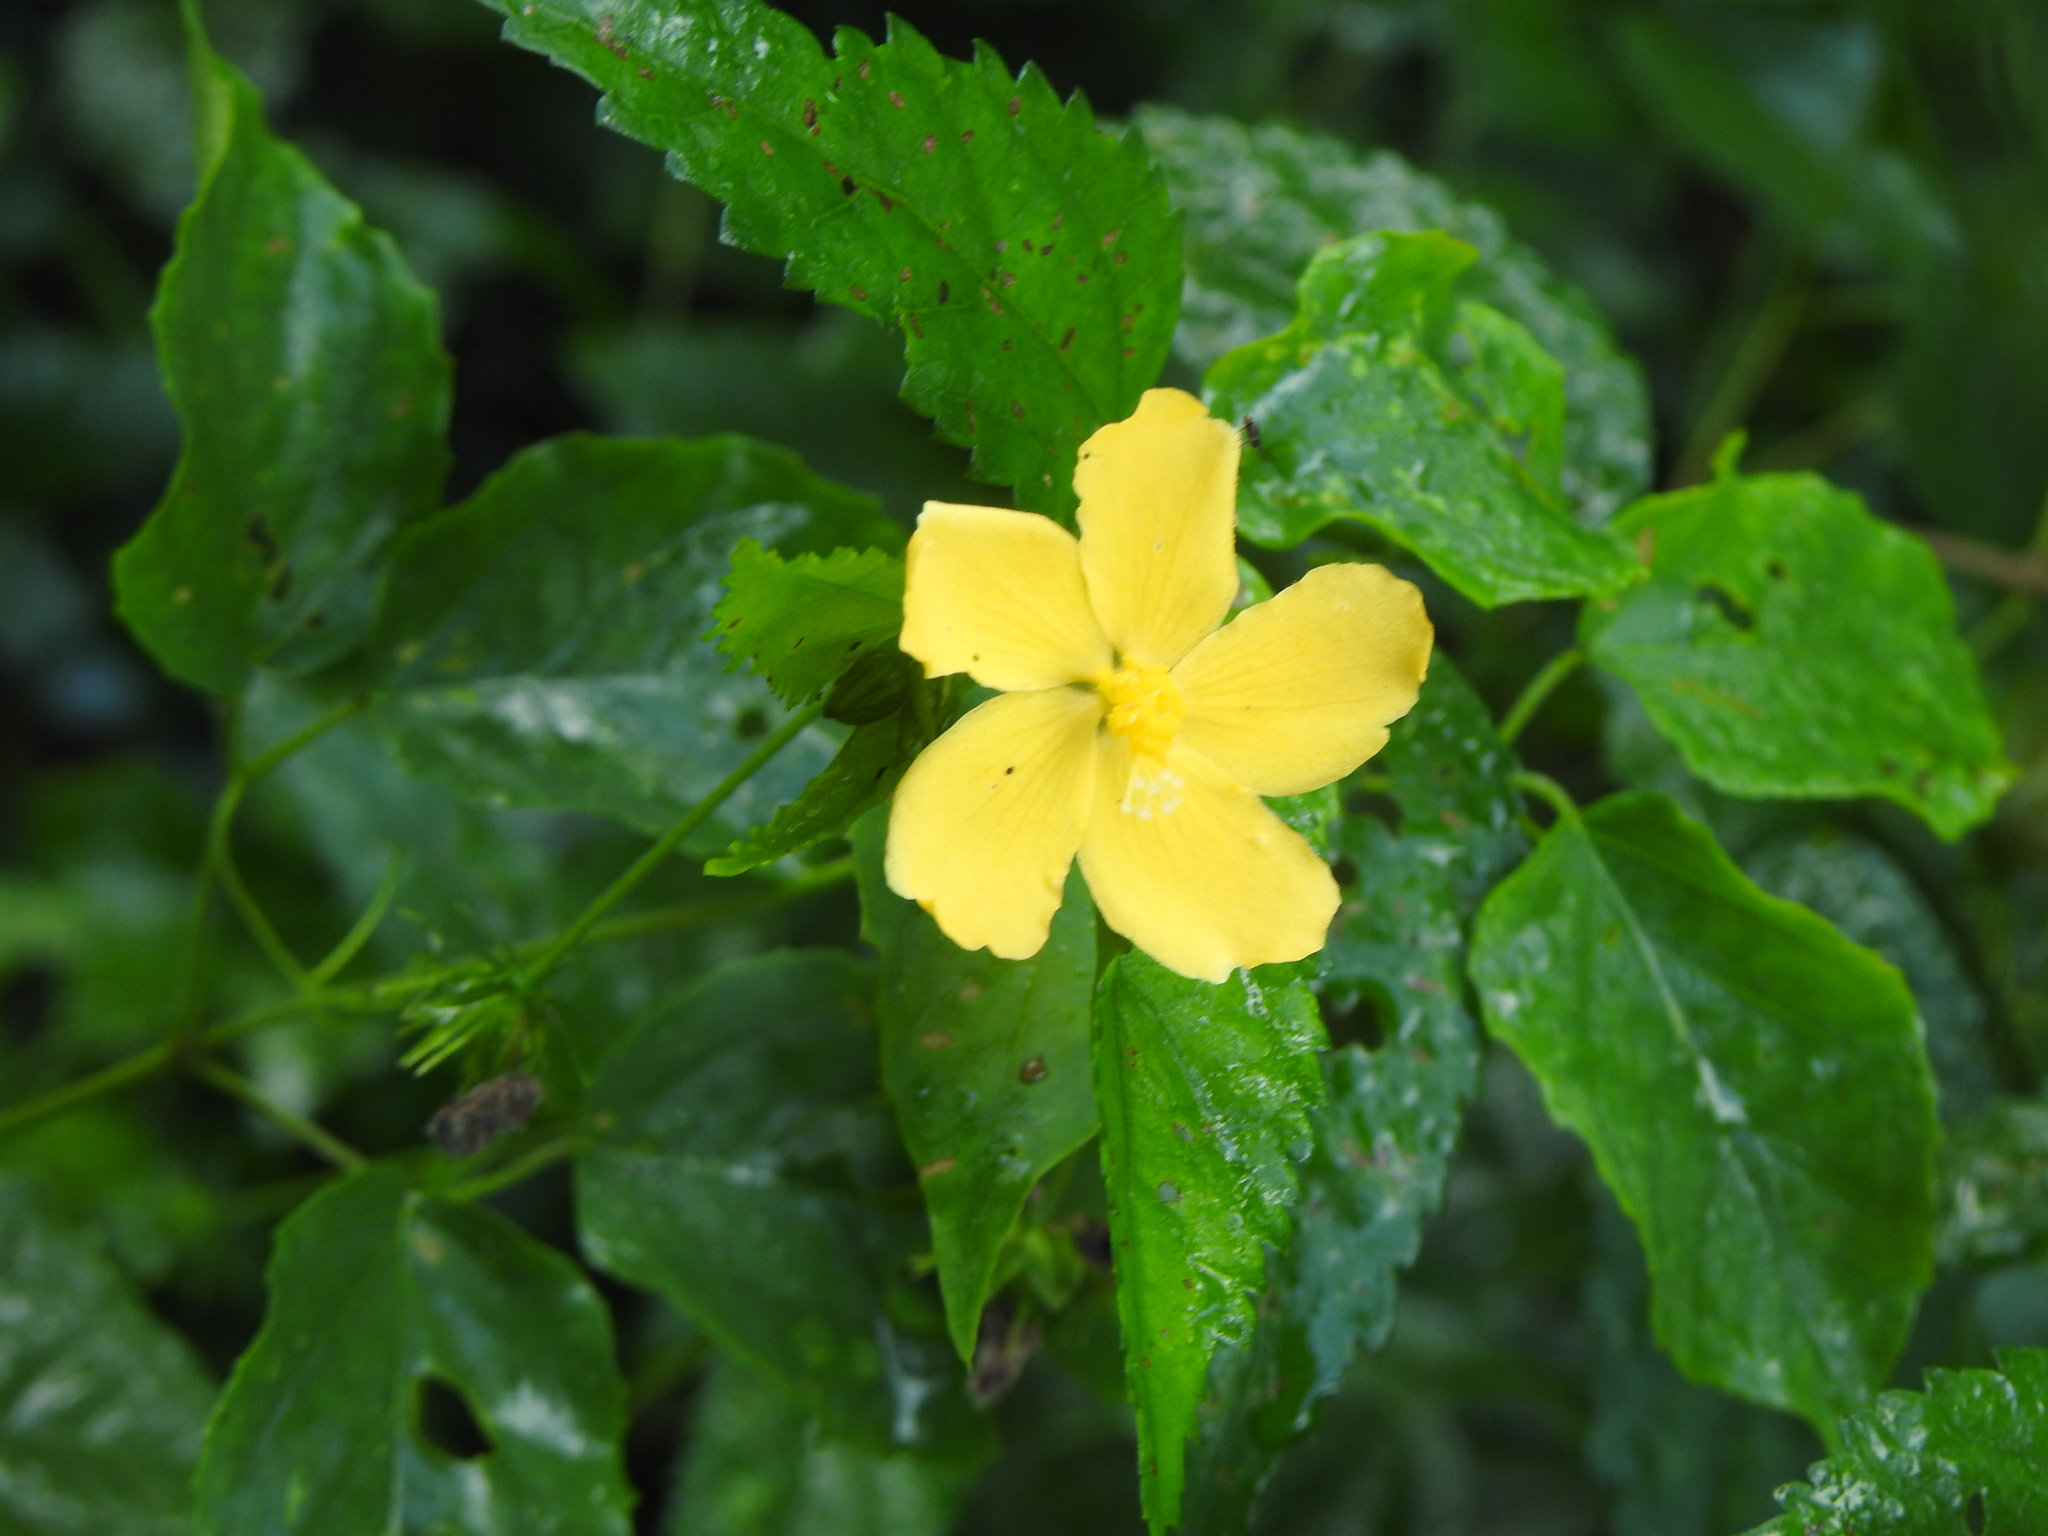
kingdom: Plantae
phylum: Tracheophyta
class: Magnoliopsida
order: Malvales
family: Malvaceae
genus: Pavonia
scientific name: Pavonia sepium
